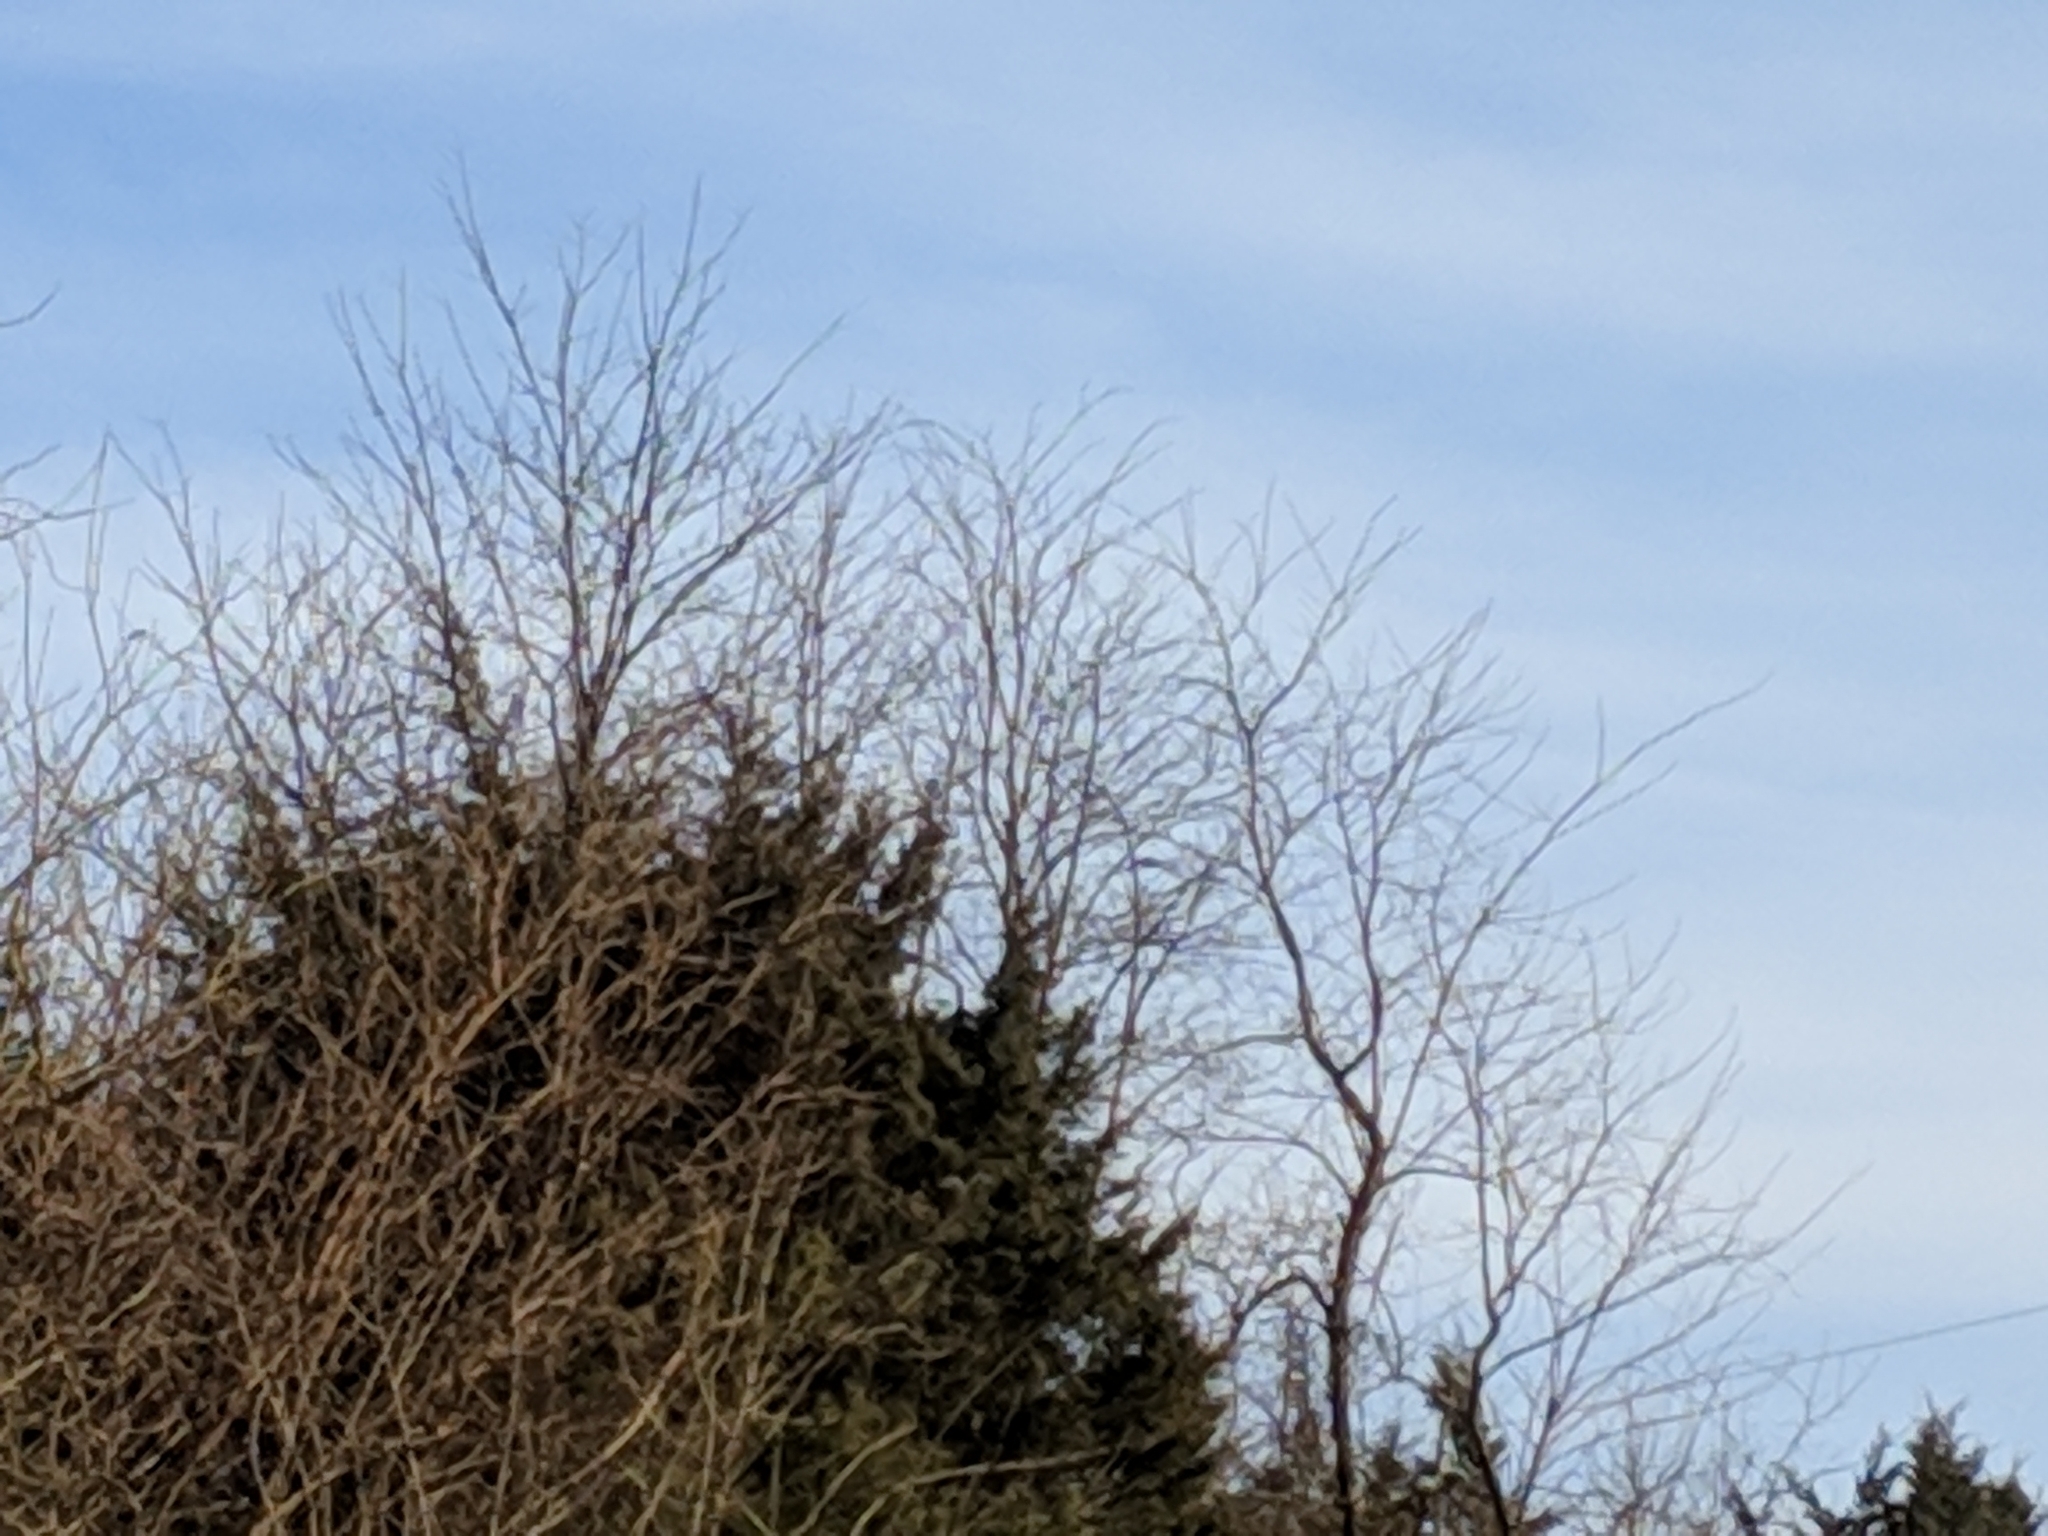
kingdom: Plantae
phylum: Tracheophyta
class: Magnoliopsida
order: Proteales
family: Platanaceae
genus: Platanus
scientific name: Platanus occidentalis
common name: American sycamore
